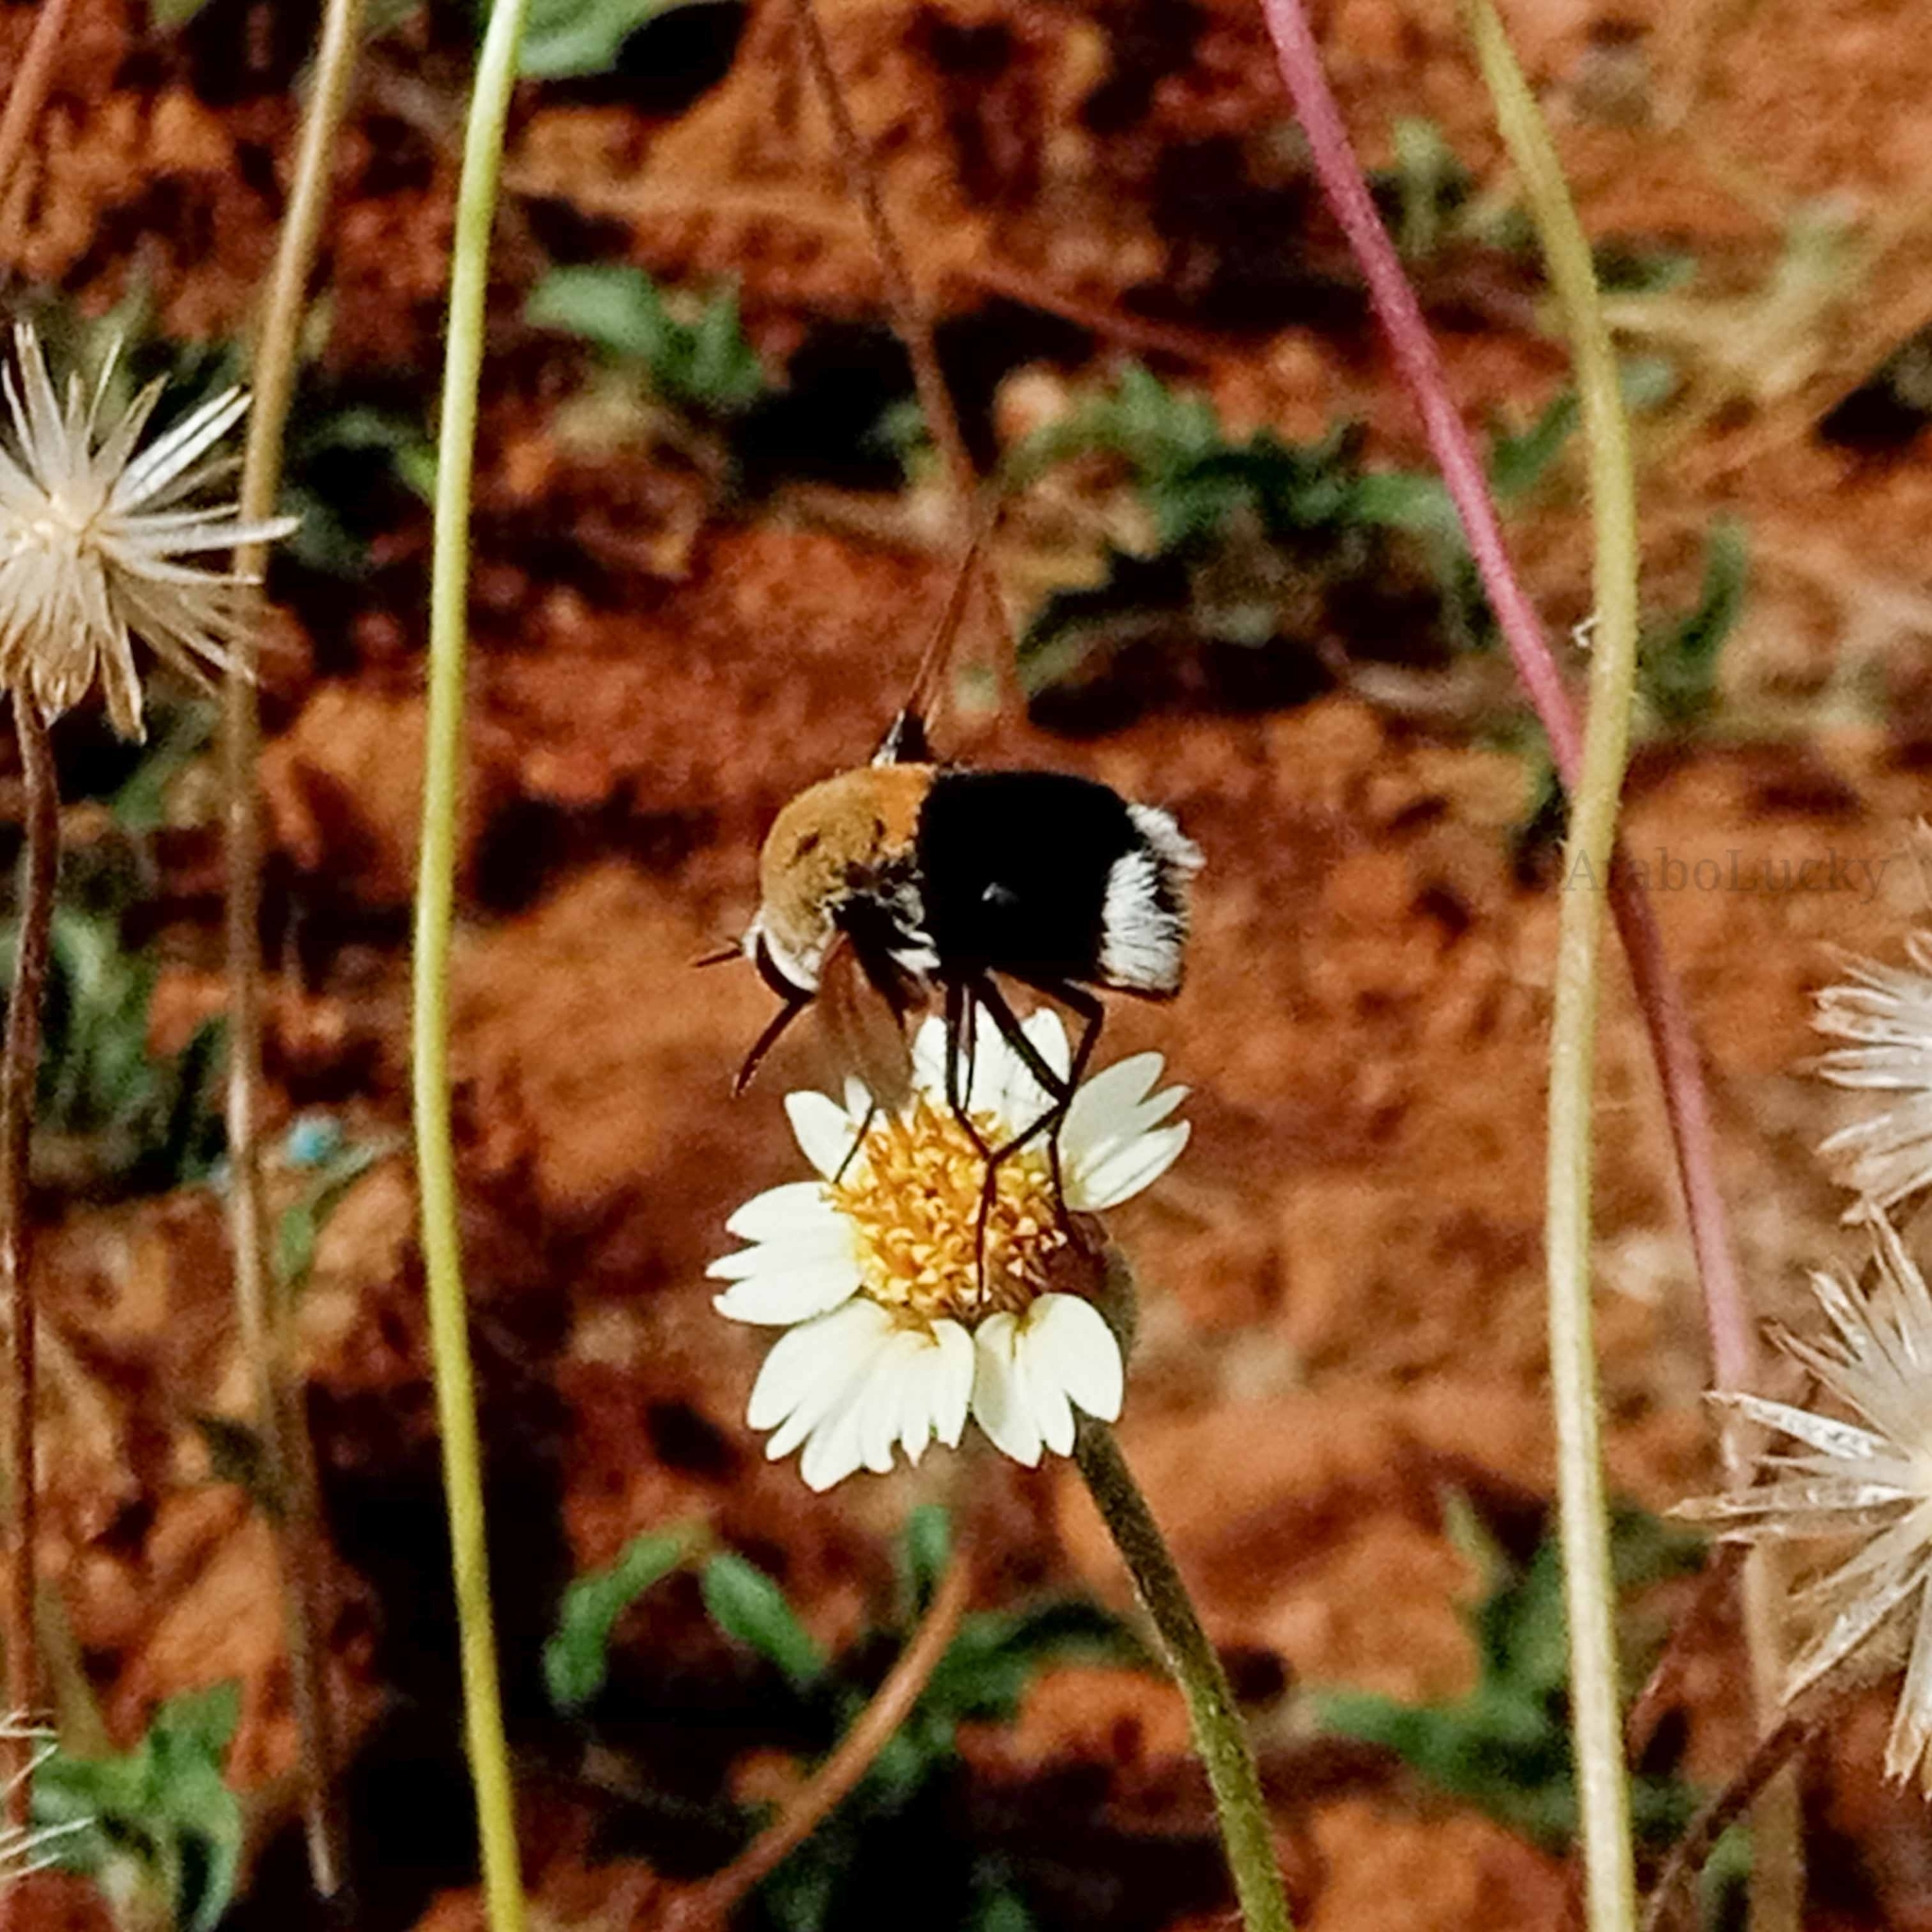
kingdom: Animalia
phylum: Arthropoda
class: Insecta
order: Diptera
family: Bombyliidae
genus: Bombomyia
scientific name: Bombomyia discoidea
